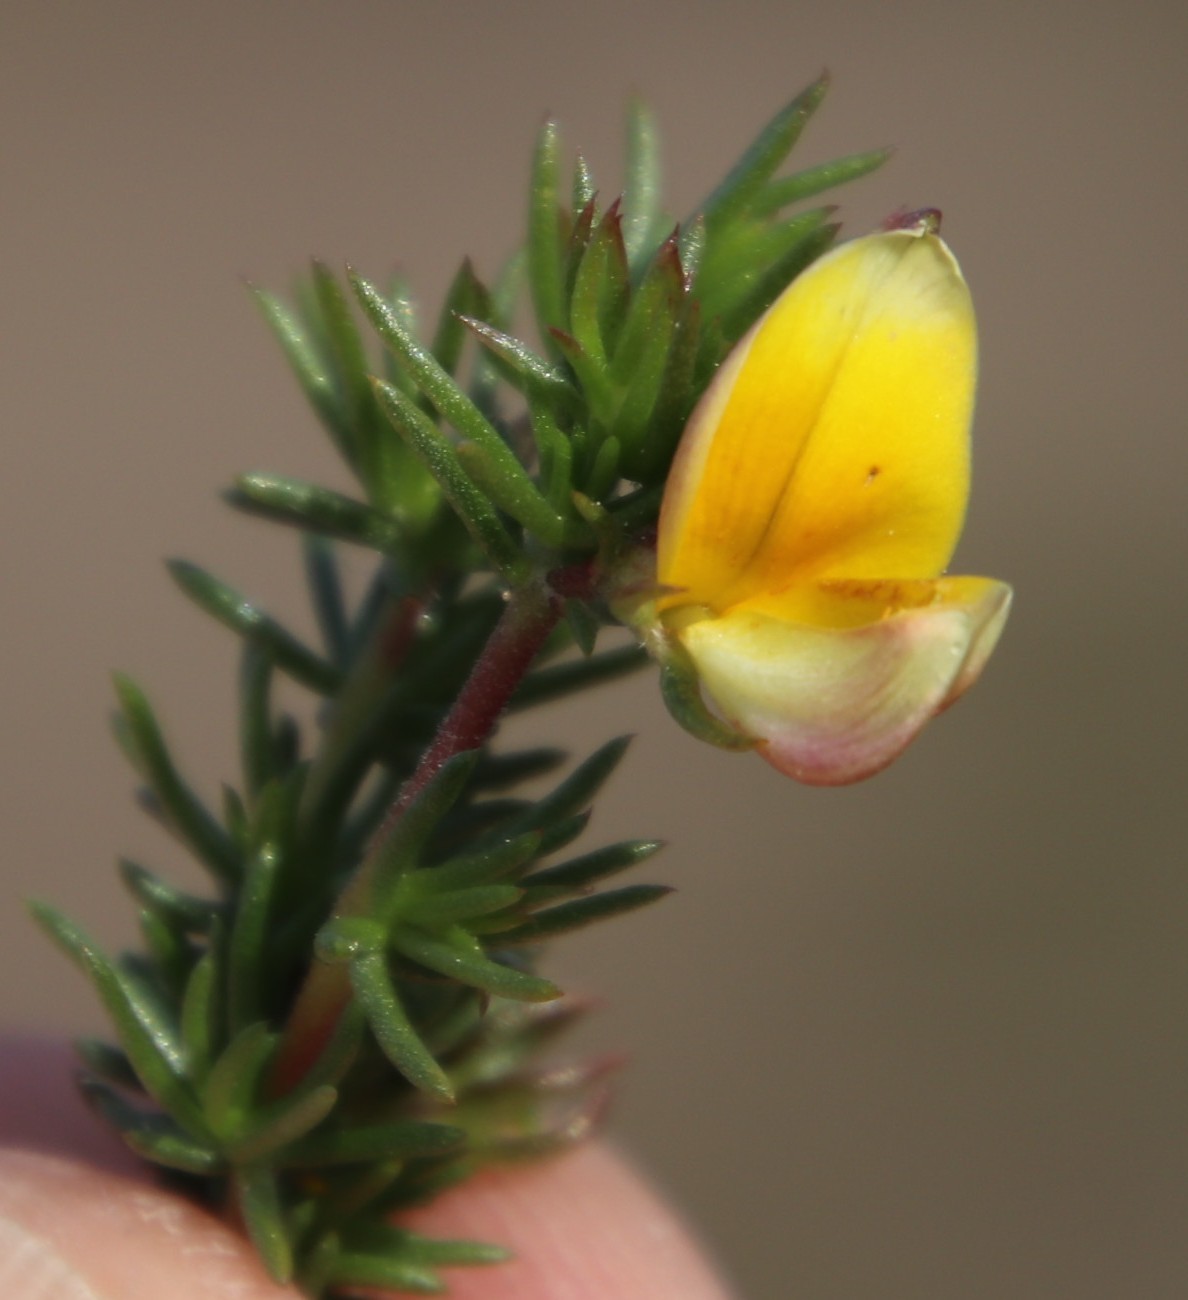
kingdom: Plantae
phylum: Tracheophyta
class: Magnoliopsida
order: Fabales
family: Fabaceae
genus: Aspalathus
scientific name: Aspalathus divaricata
